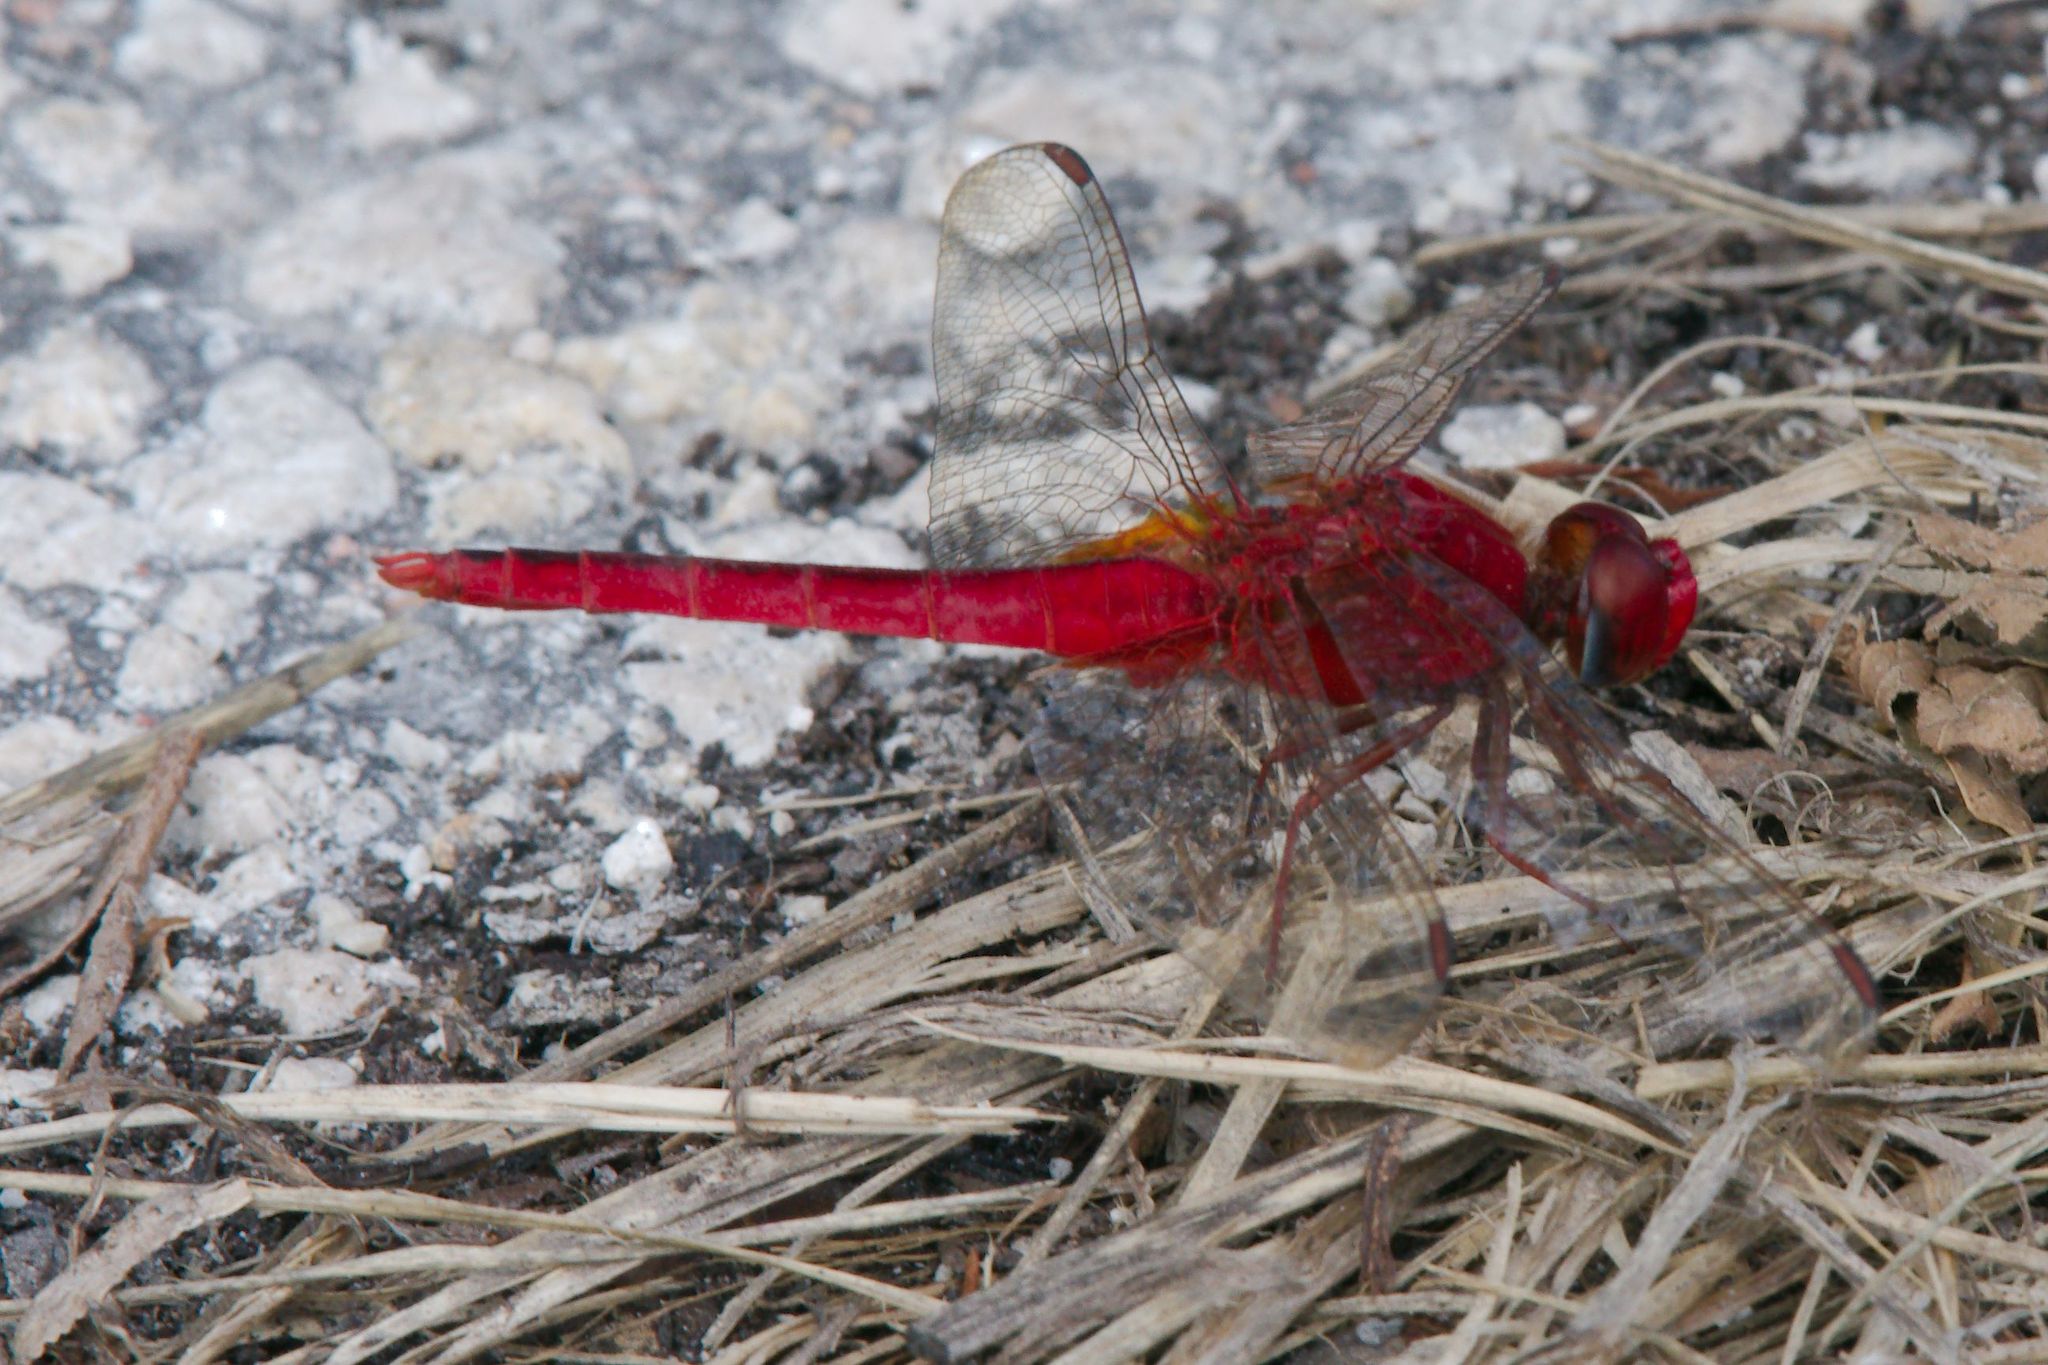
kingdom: Animalia
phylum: Arthropoda
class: Insecta
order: Odonata
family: Libellulidae
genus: Crocothemis
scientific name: Crocothemis servilia
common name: Scarlet skimmer
